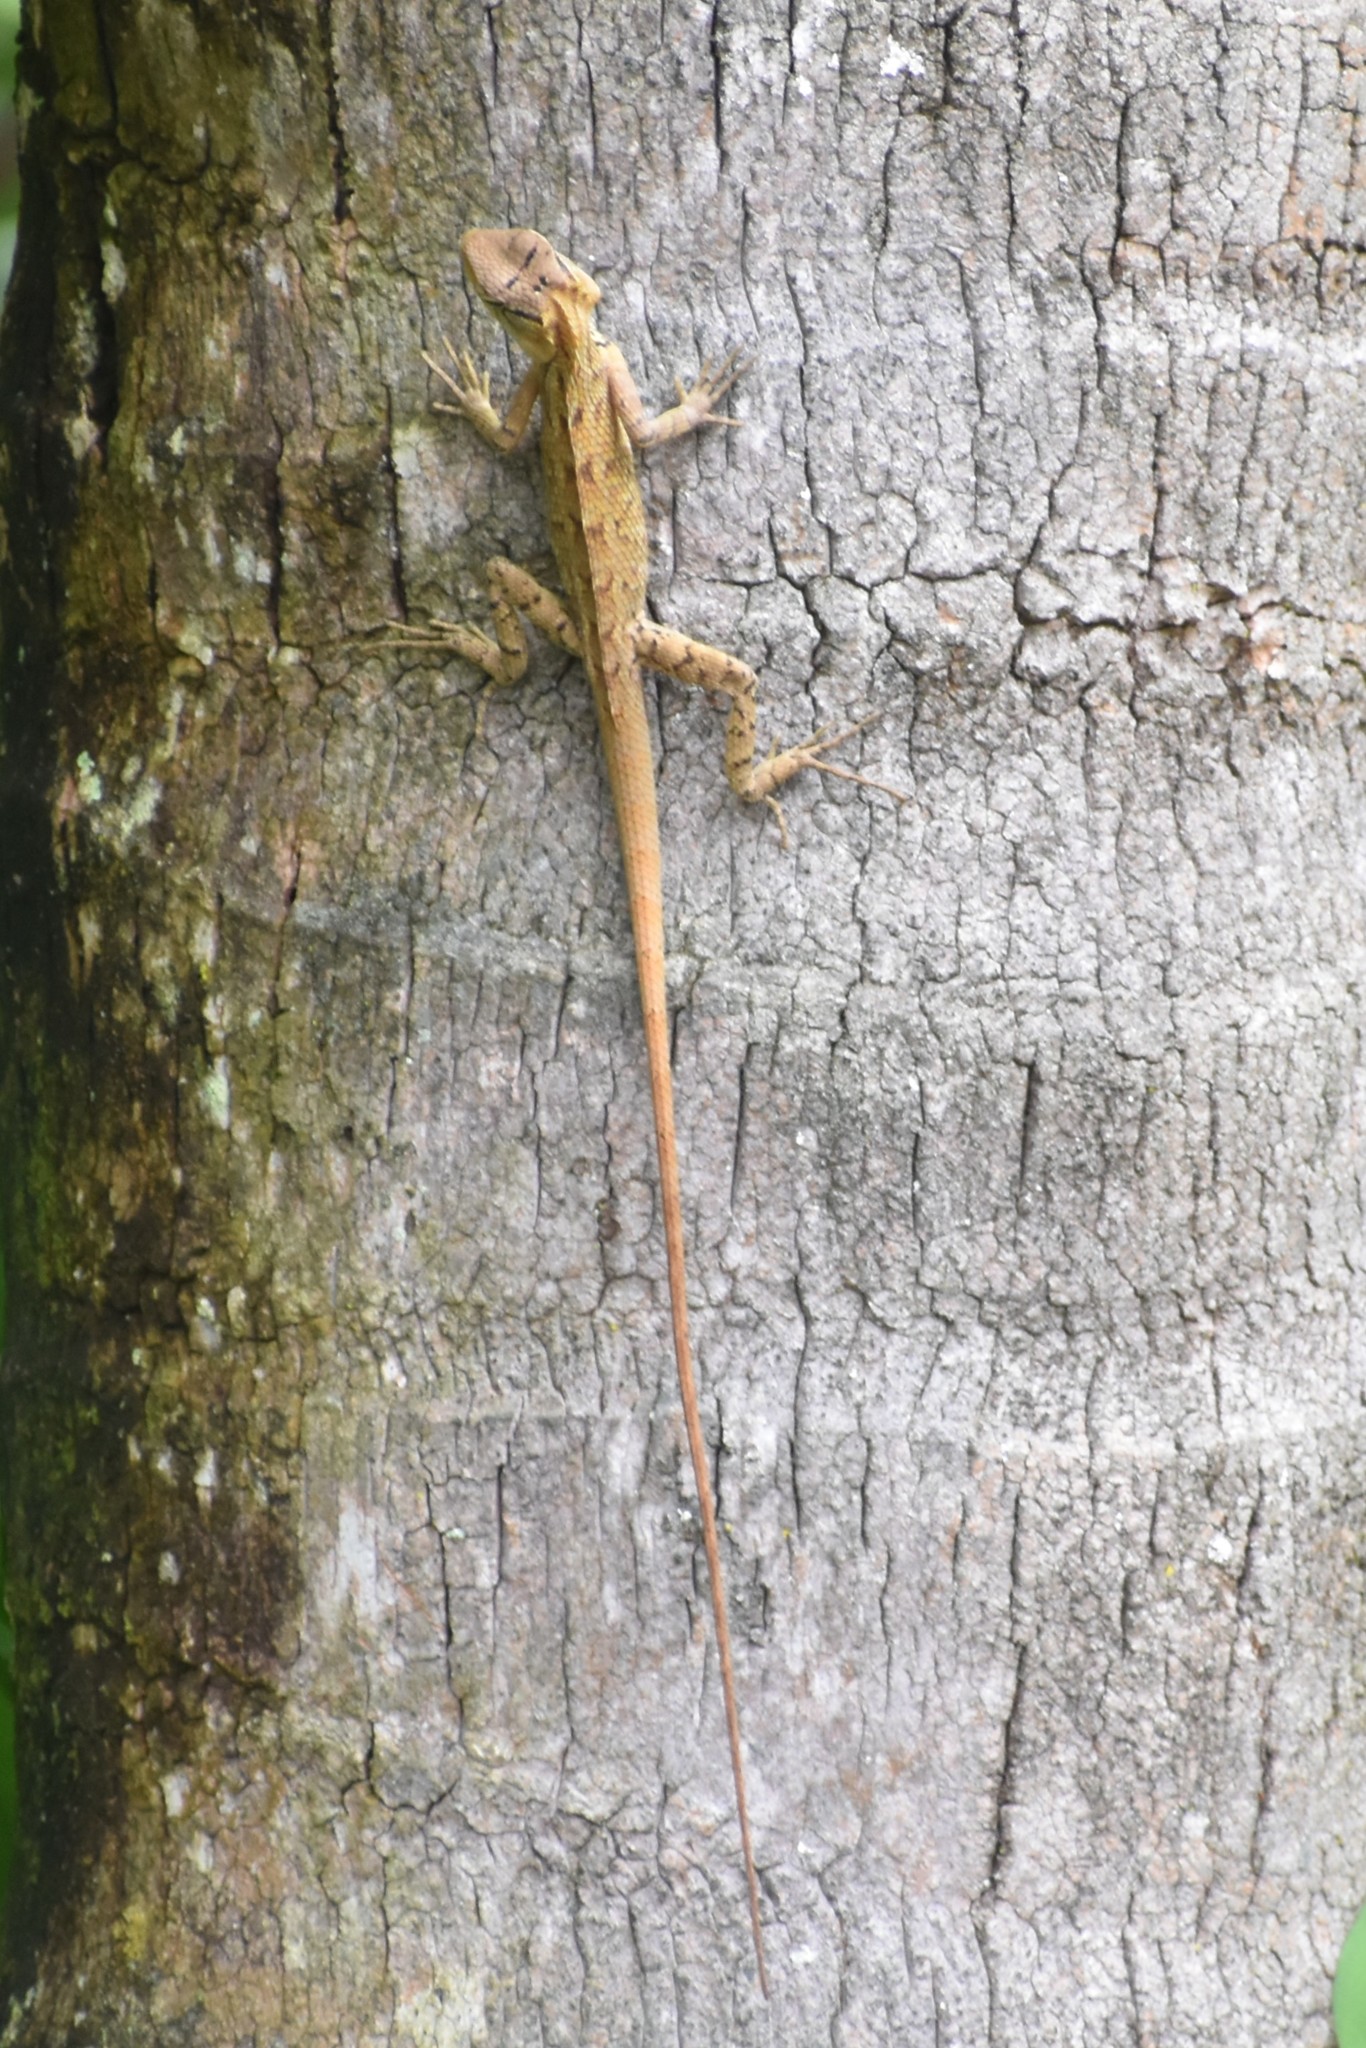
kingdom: Animalia
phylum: Chordata
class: Squamata
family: Agamidae
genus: Calotes
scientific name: Calotes versicolor
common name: Oriental garden lizard
